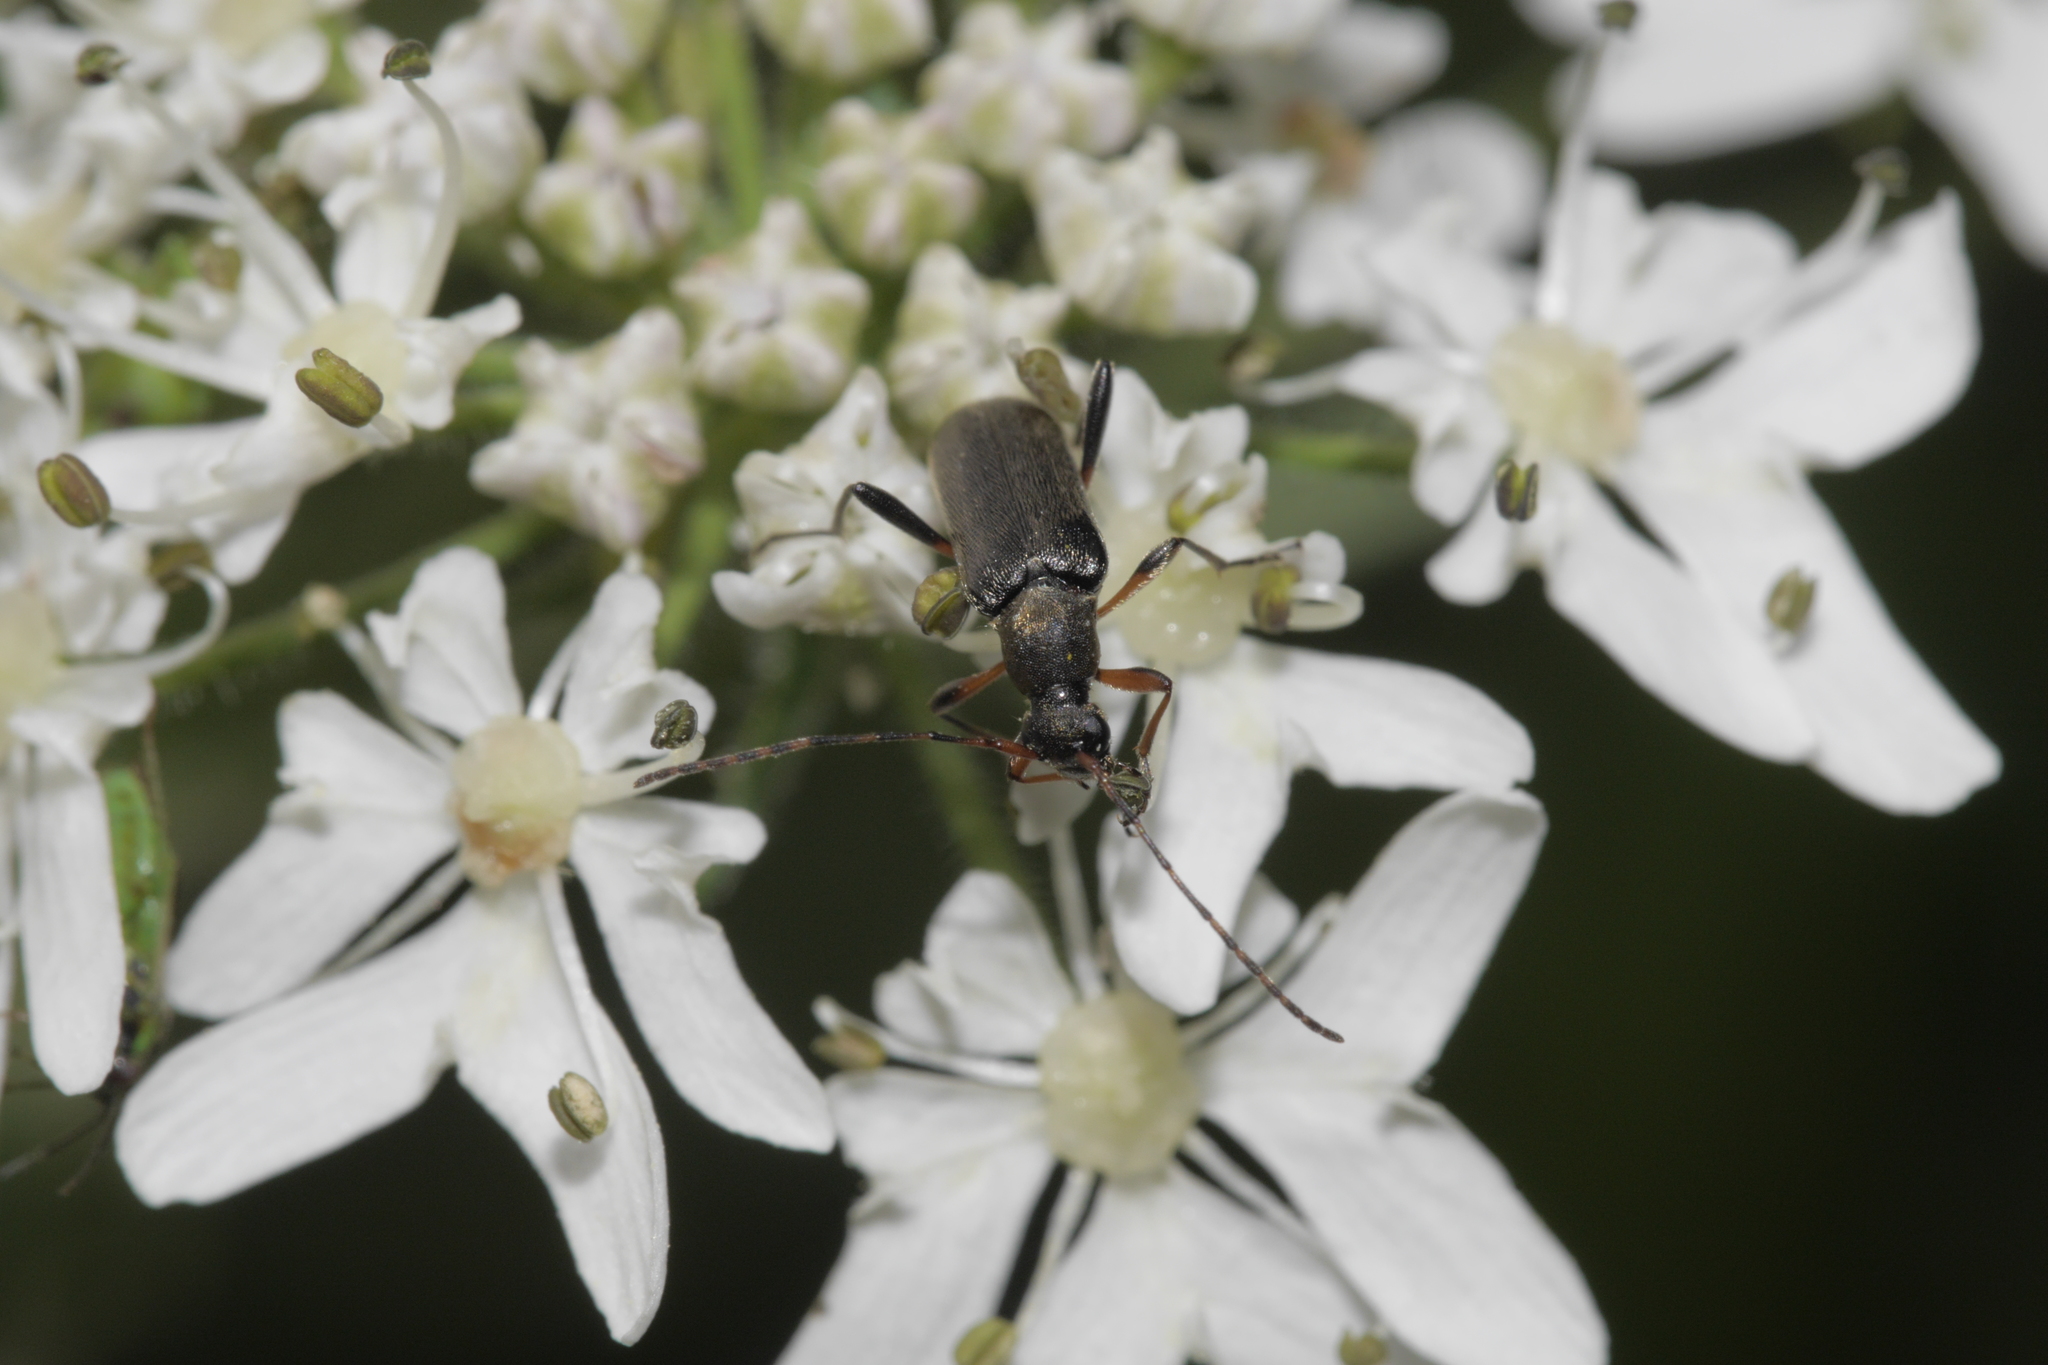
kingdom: Animalia
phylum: Arthropoda
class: Insecta
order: Coleoptera
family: Cerambycidae
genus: Grammoptera
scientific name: Grammoptera ruficornis
